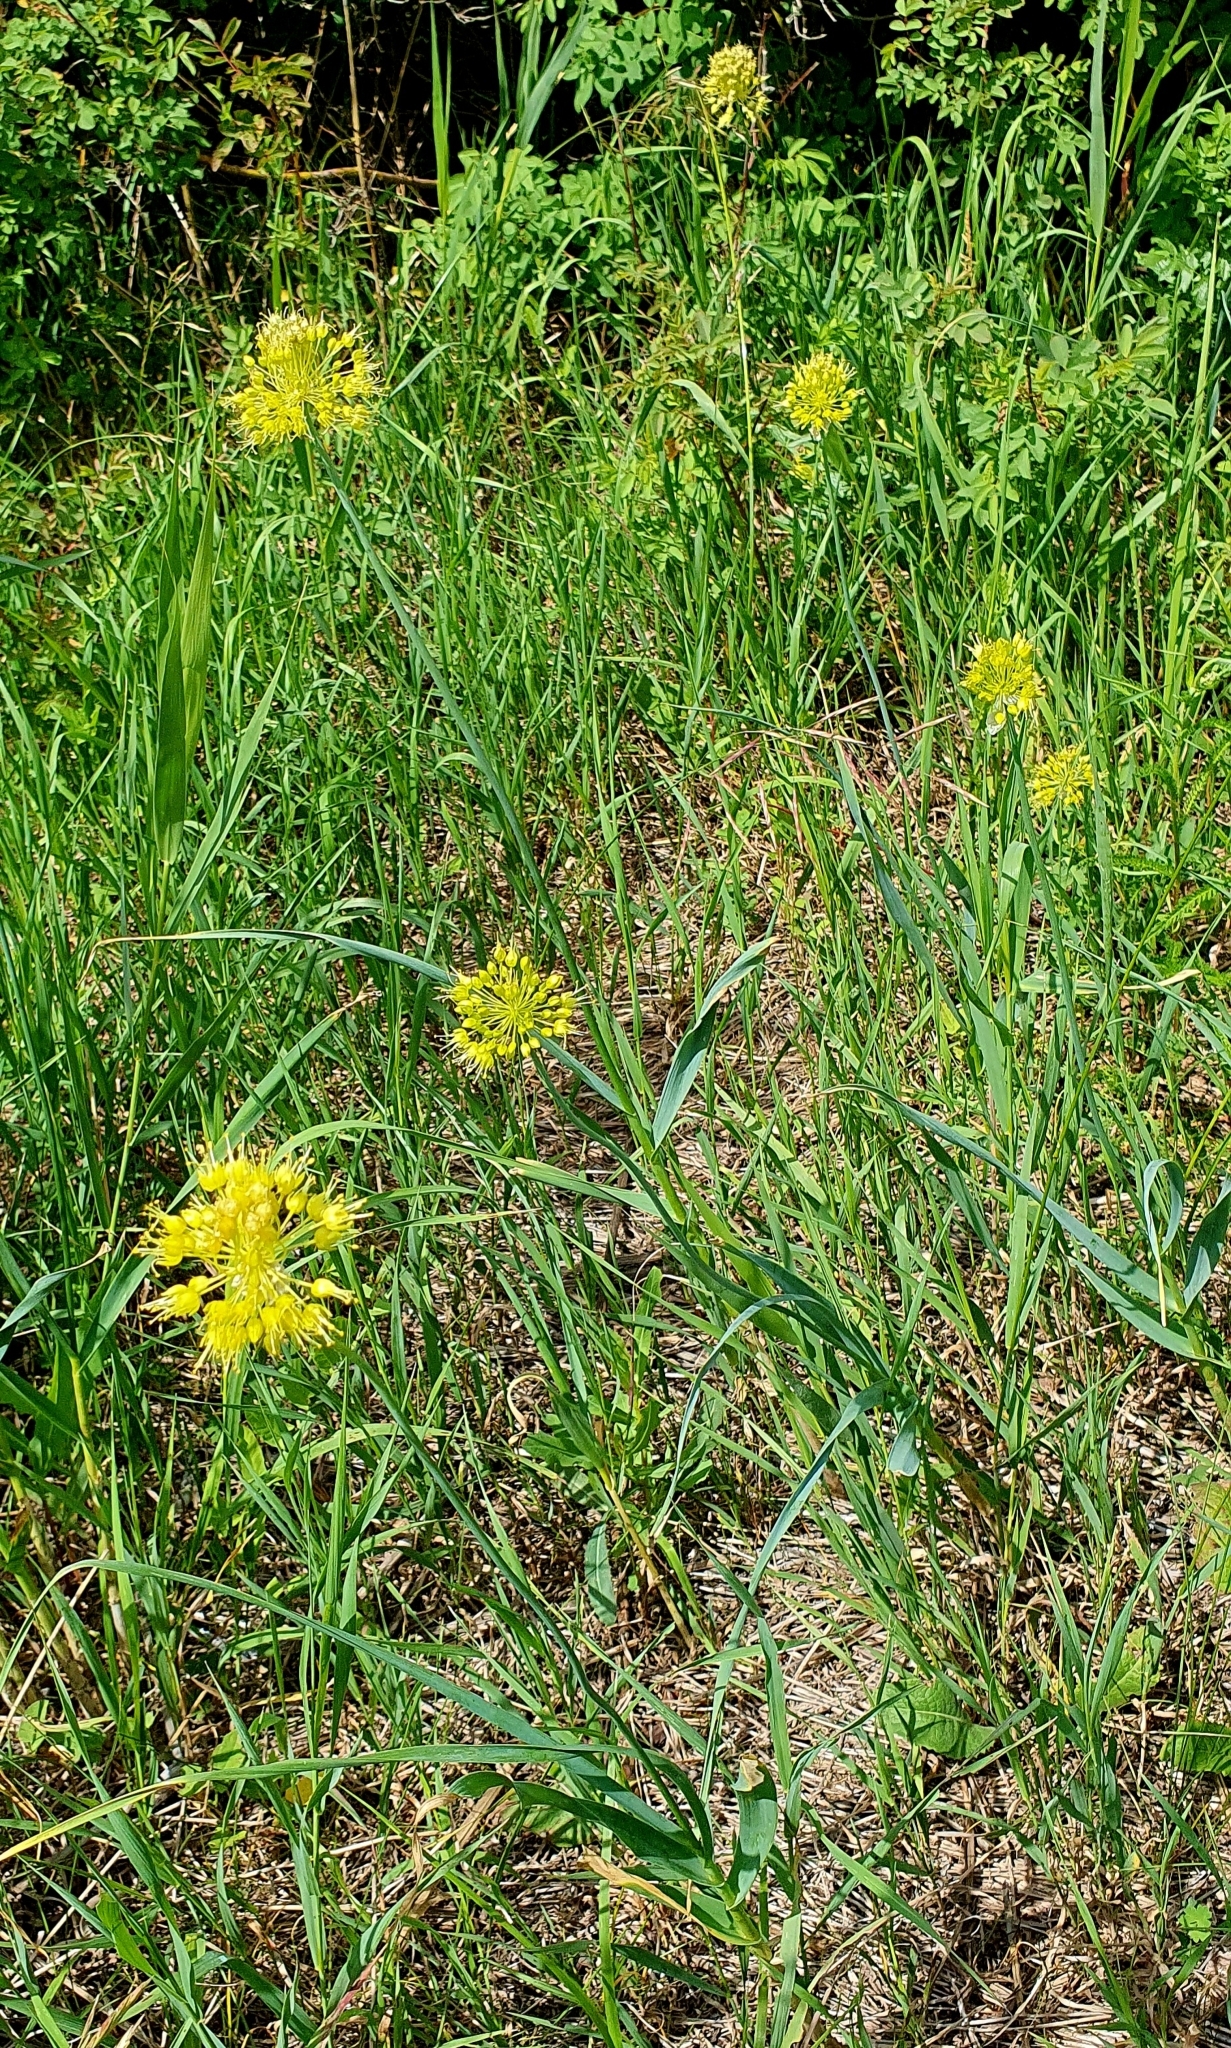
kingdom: Plantae
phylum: Tracheophyta
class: Liliopsida
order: Asparagales
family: Amaryllidaceae
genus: Allium
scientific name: Allium obliquum
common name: Oblique onion
